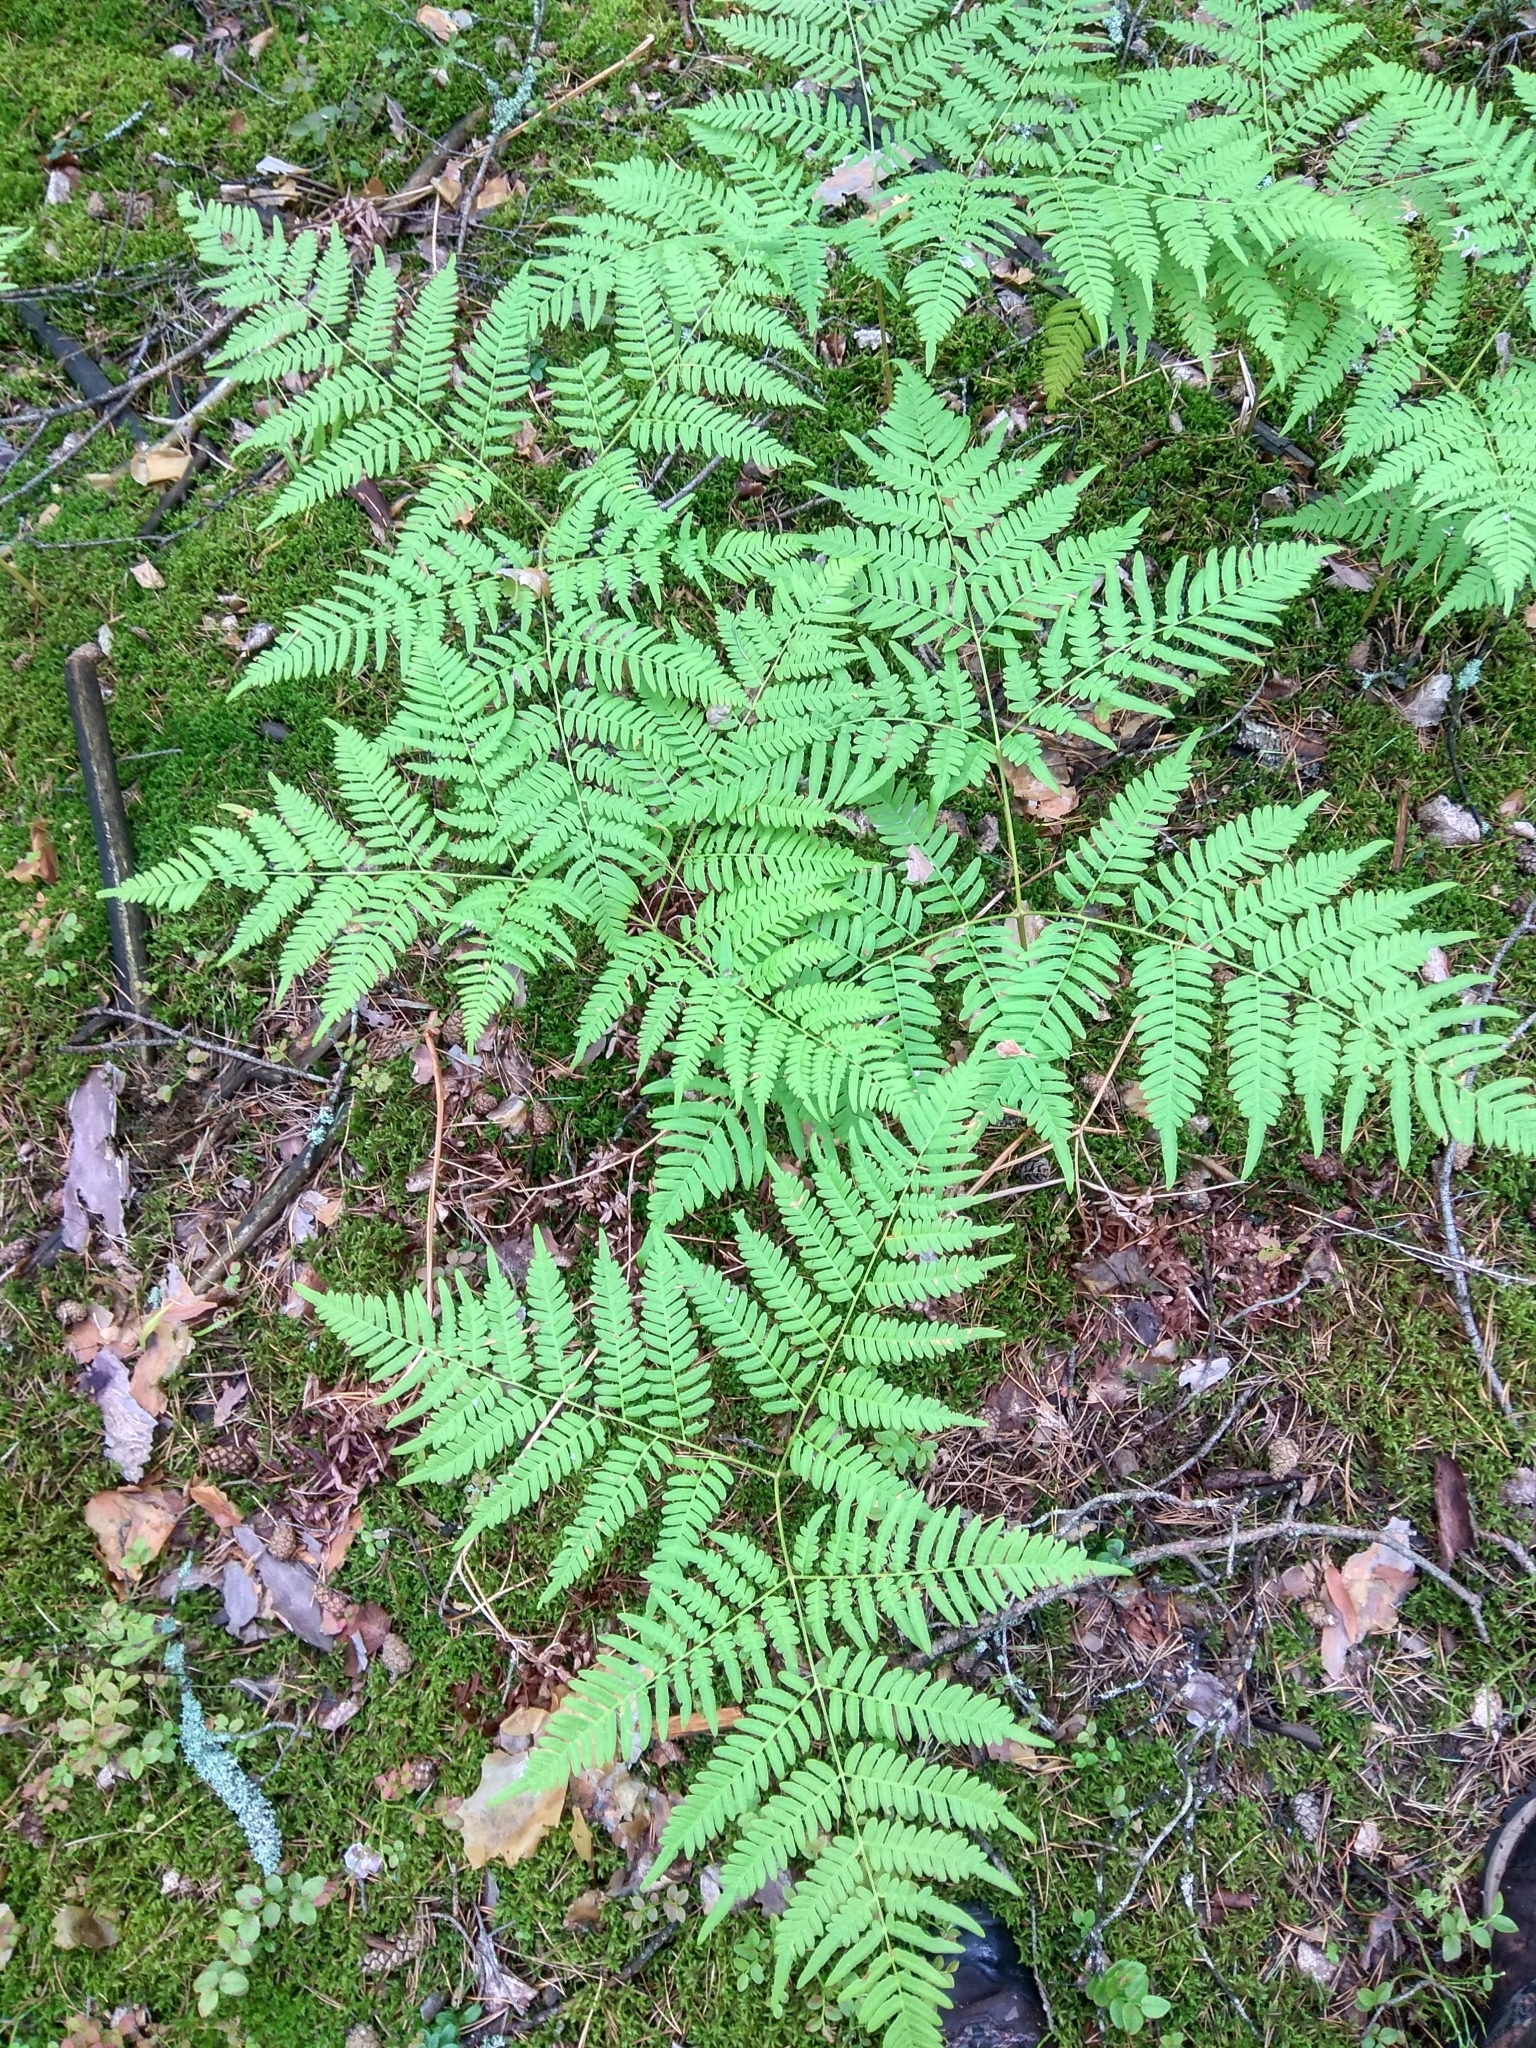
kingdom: Plantae
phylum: Tracheophyta
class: Polypodiopsida
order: Polypodiales
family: Dennstaedtiaceae
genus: Pteridium
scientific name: Pteridium aquilinum
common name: Bracken
